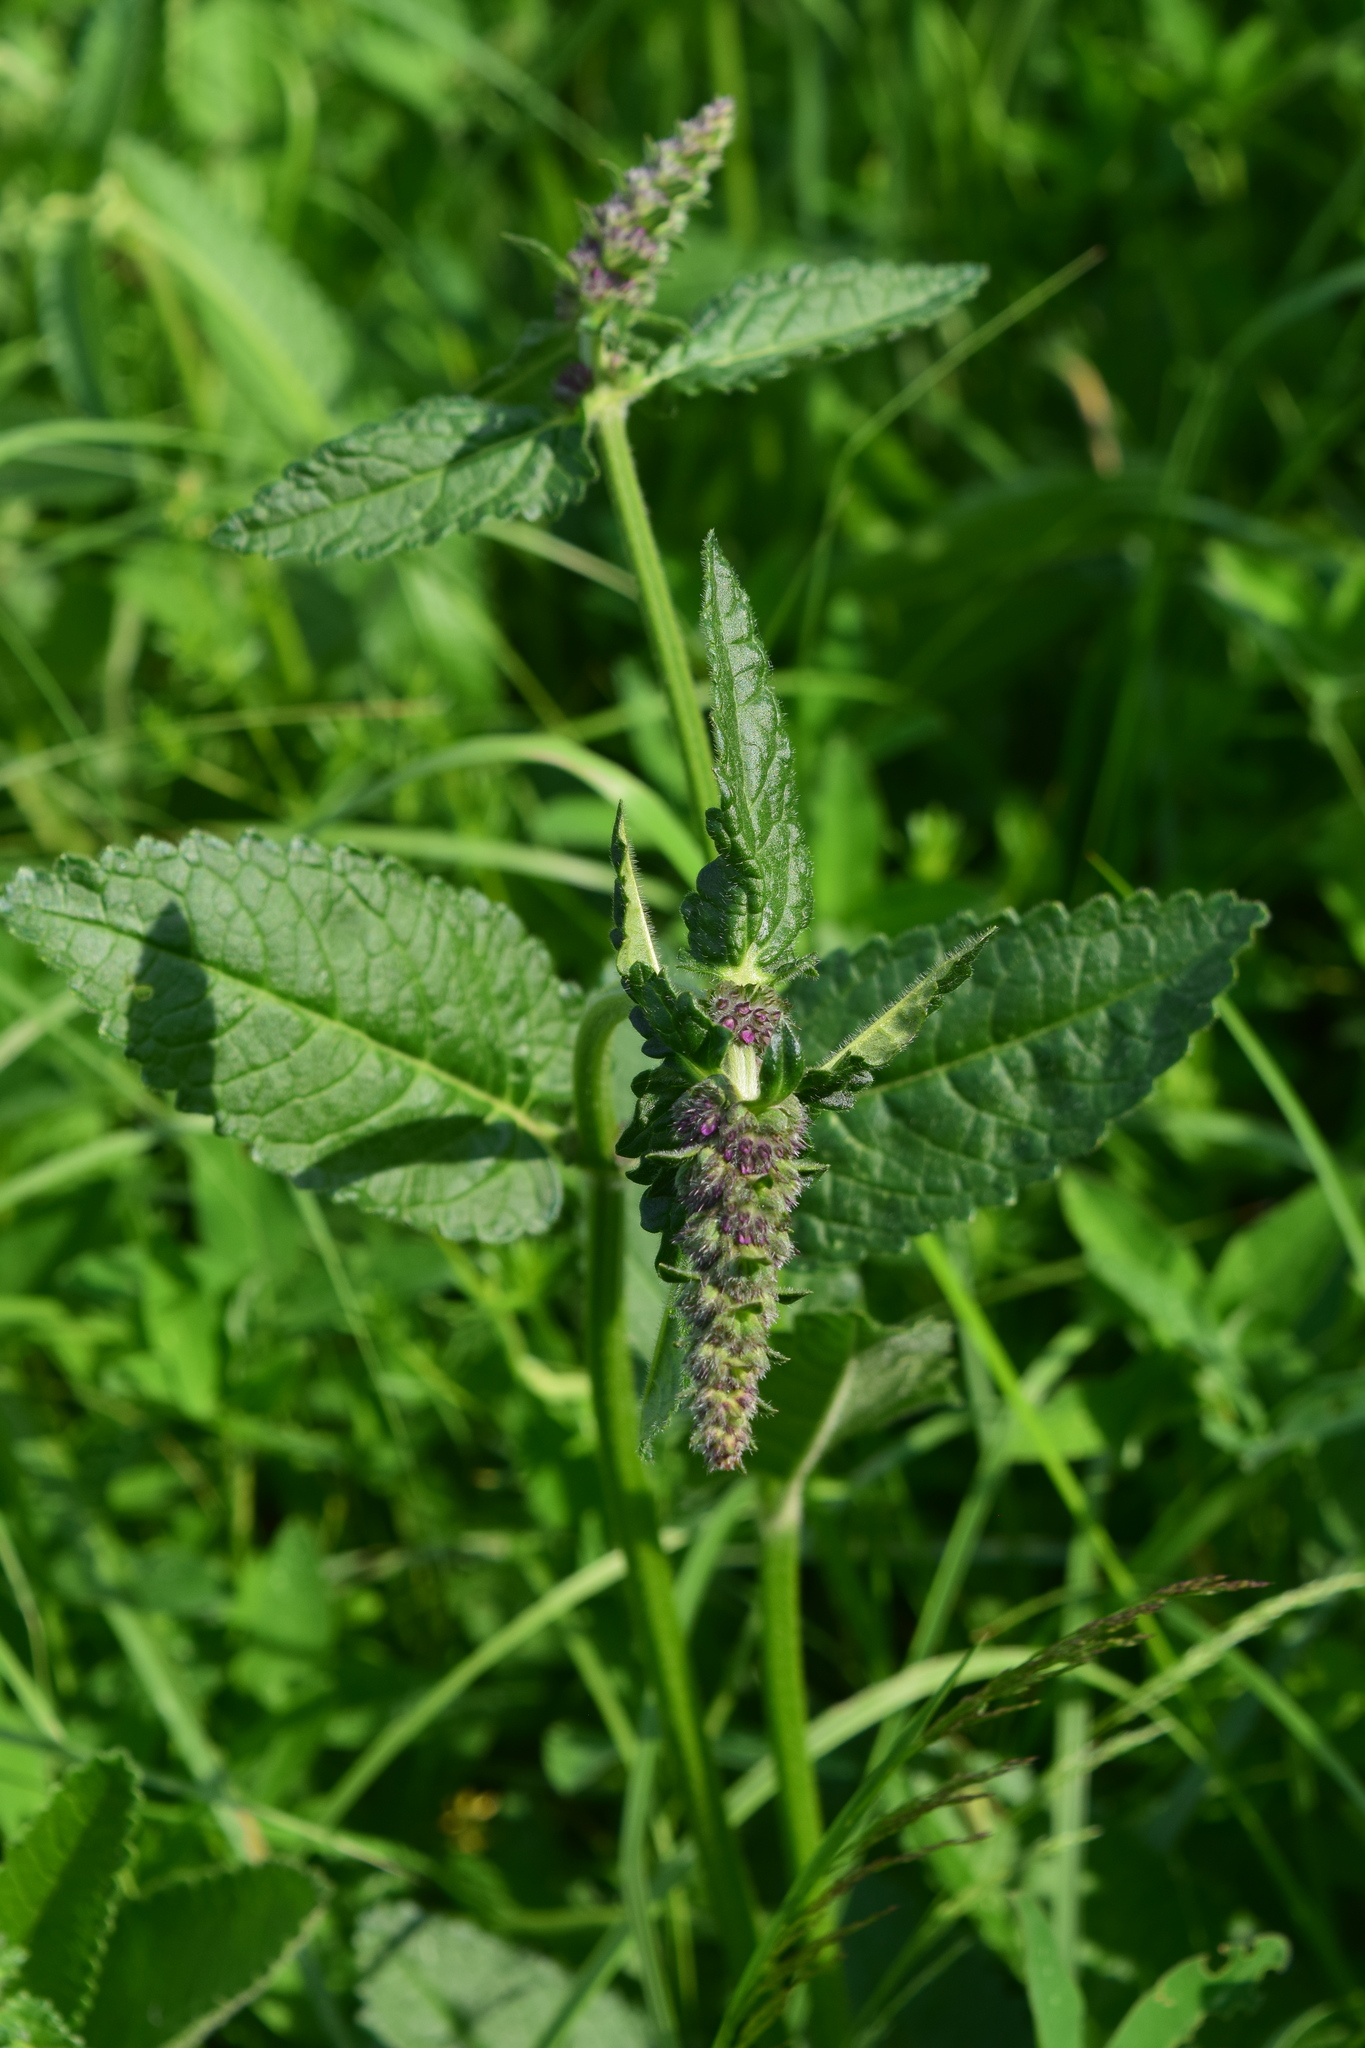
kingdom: Plantae
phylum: Tracheophyta
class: Magnoliopsida
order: Lamiales
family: Lamiaceae
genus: Betonica
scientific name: Betonica officinalis
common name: Bishop's-wort
